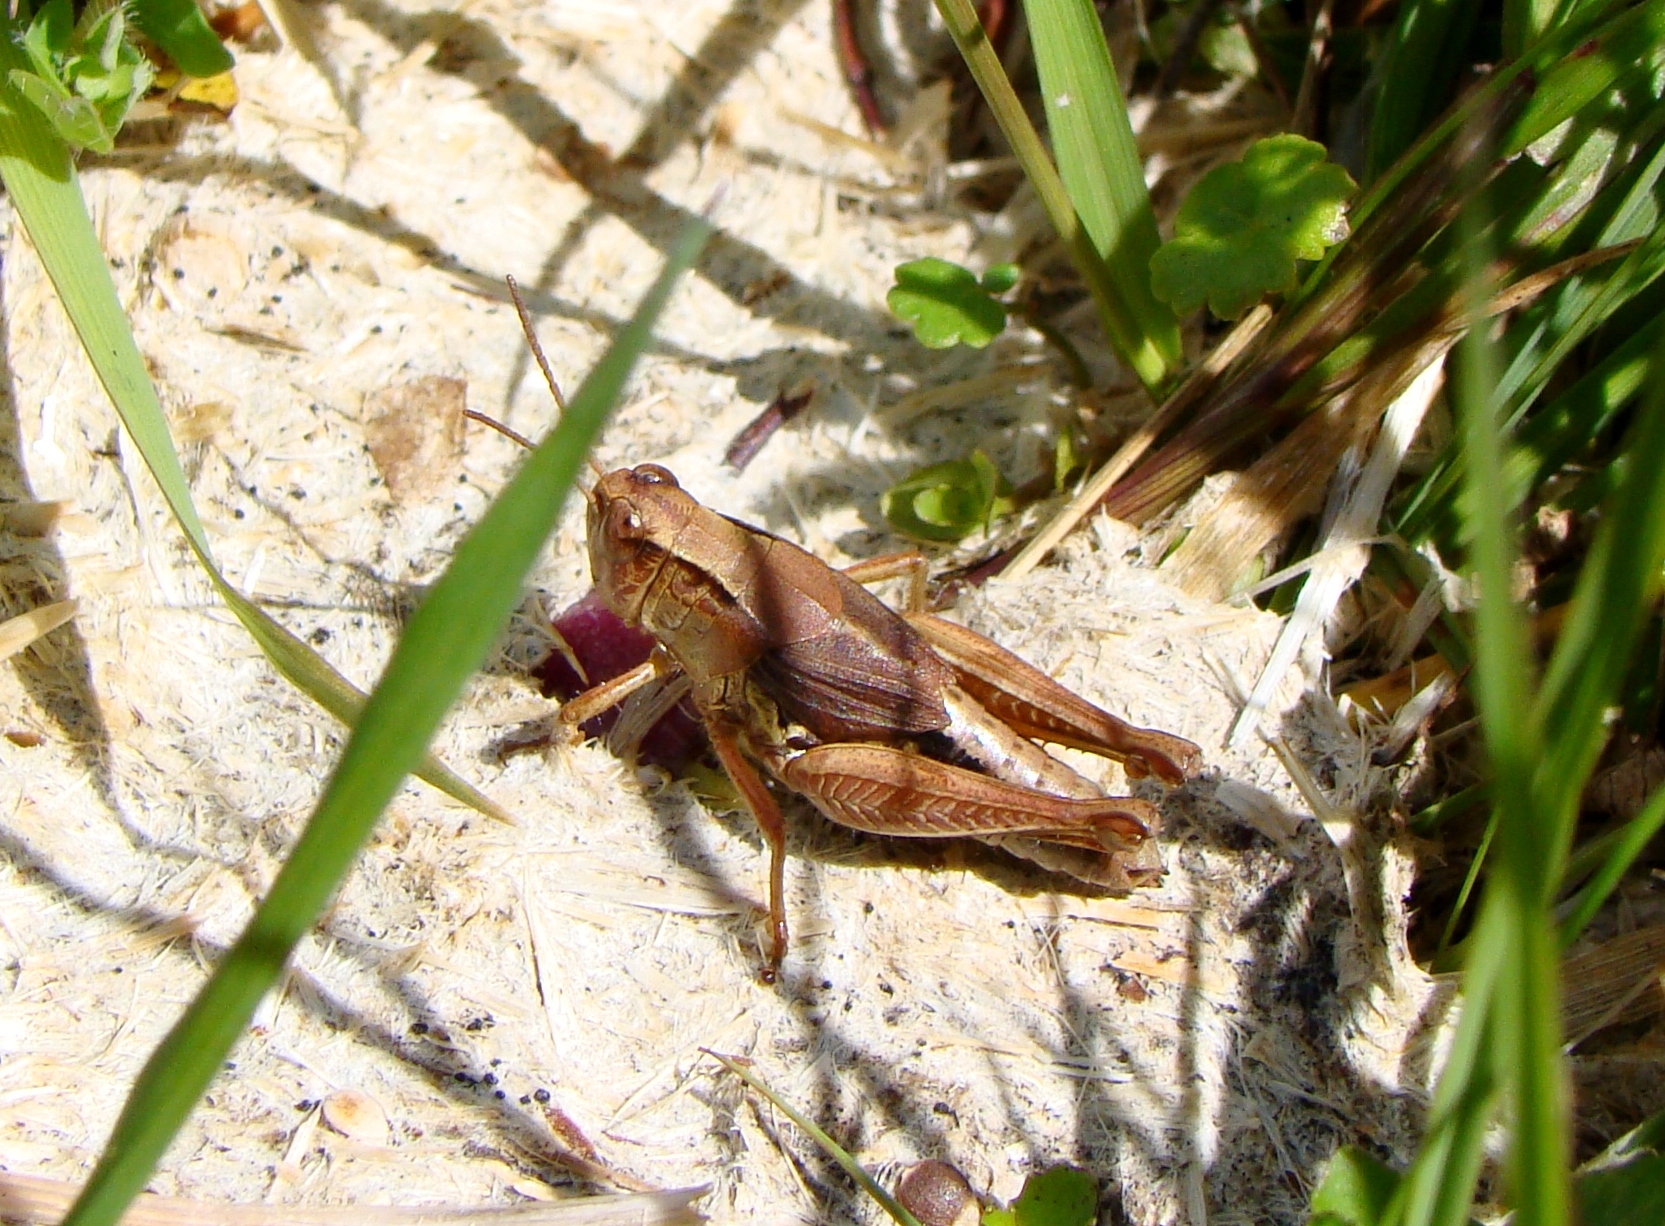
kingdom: Animalia
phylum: Arthropoda
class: Insecta
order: Orthoptera
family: Acrididae
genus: Phaulacridium
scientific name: Phaulacridium marginale
